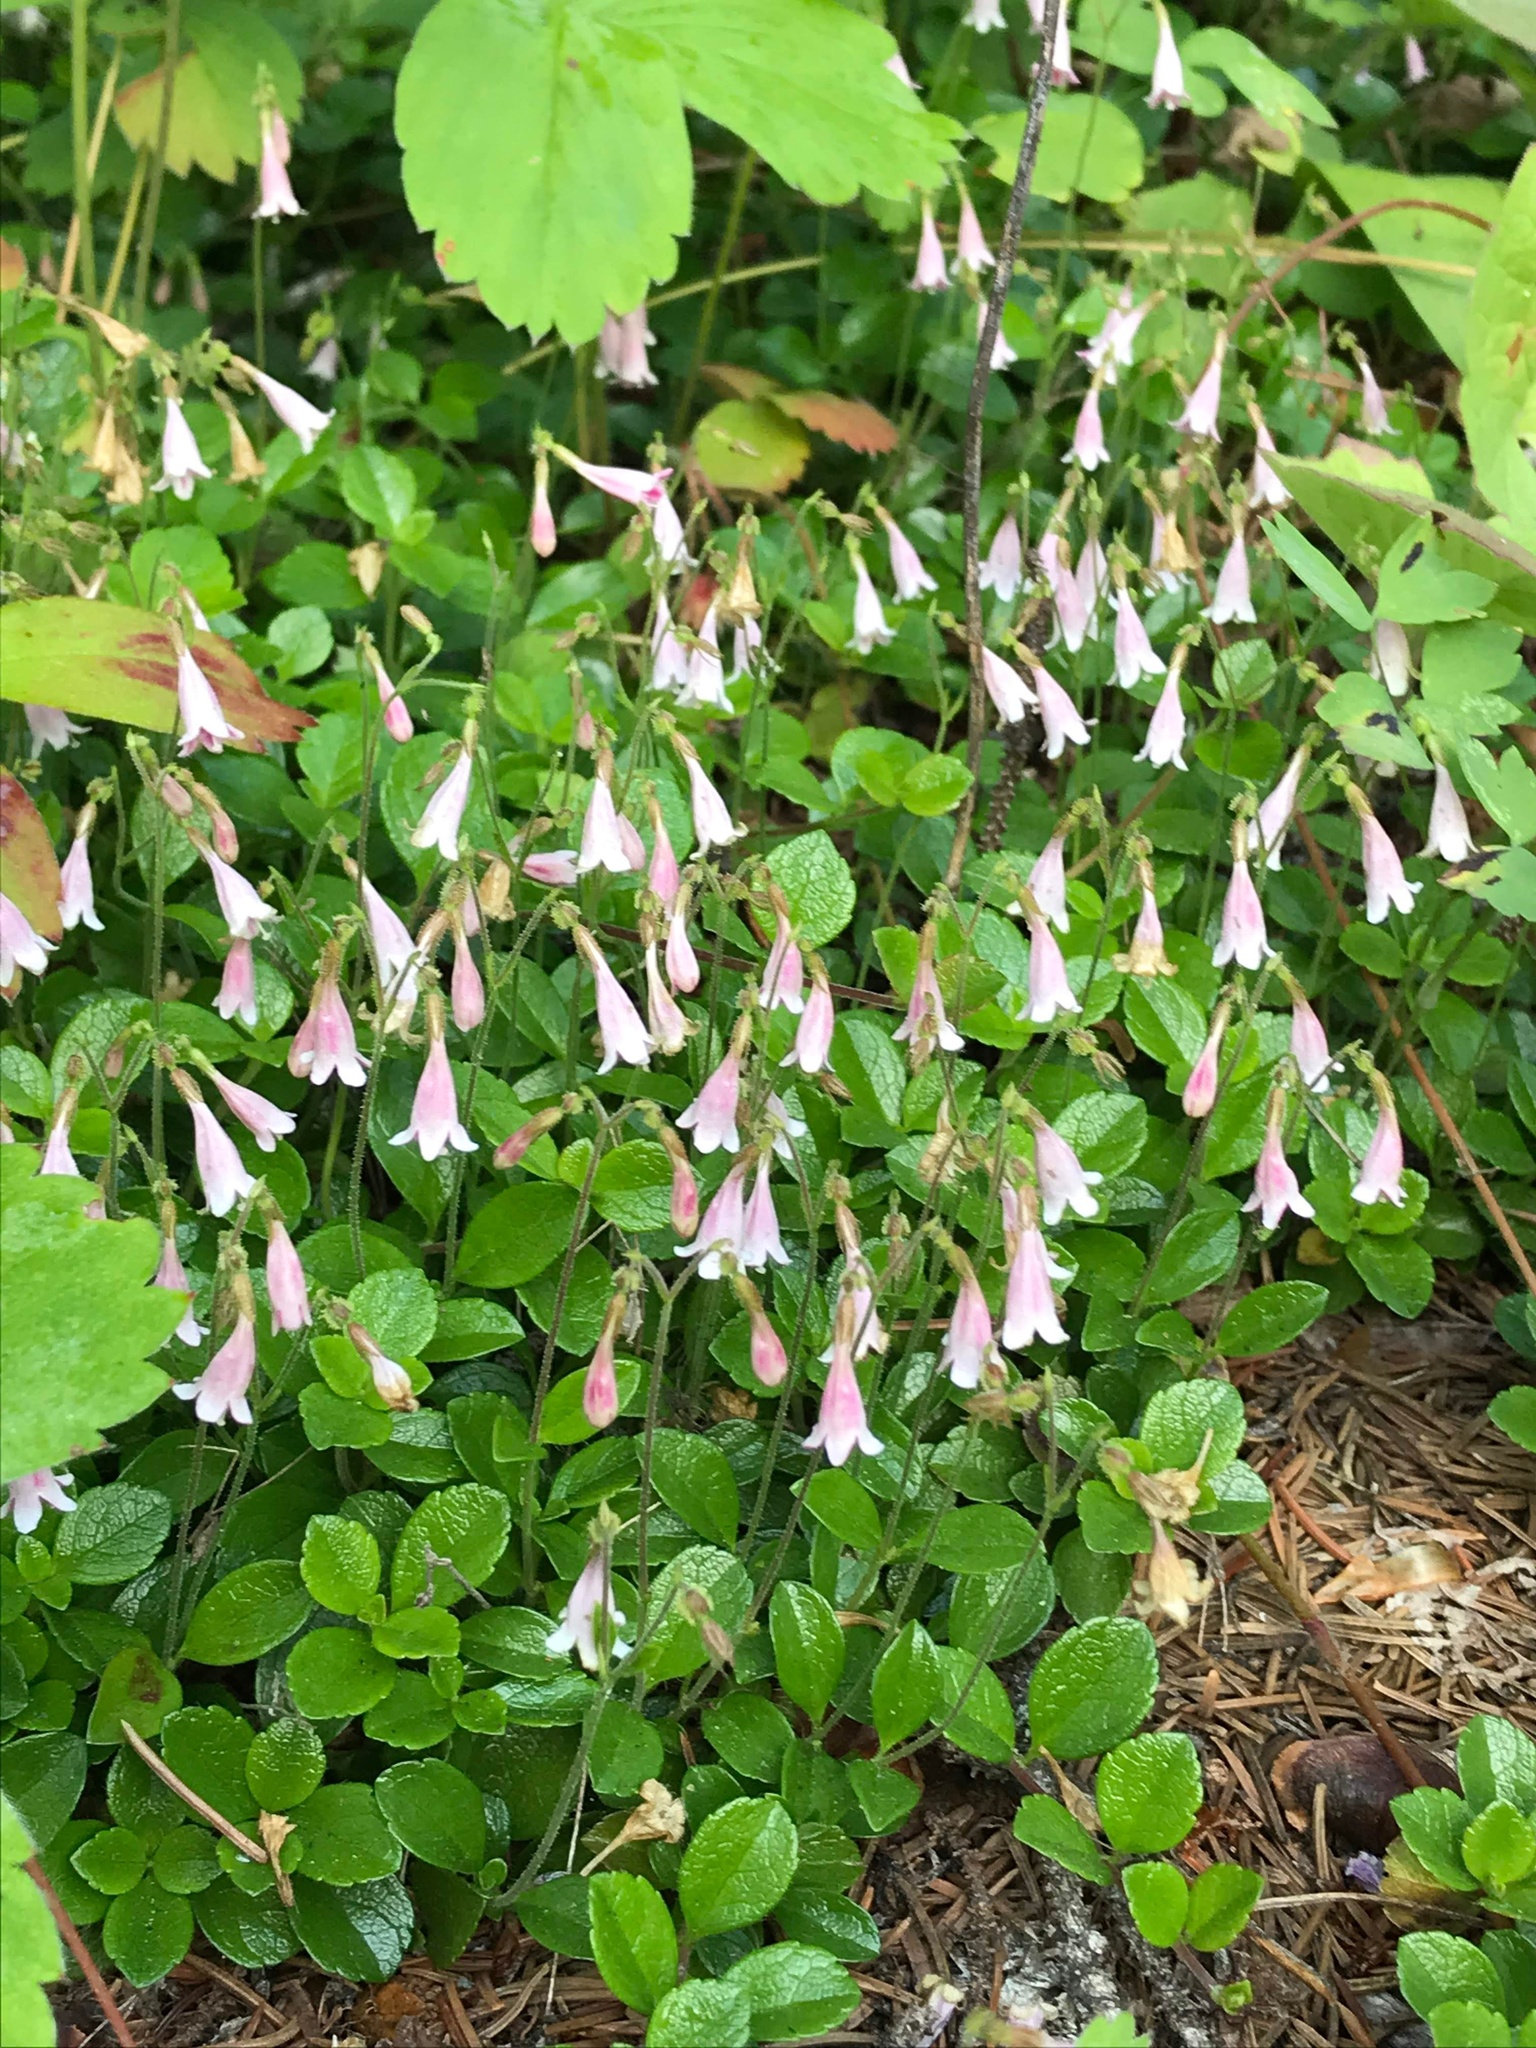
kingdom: Plantae
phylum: Tracheophyta
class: Magnoliopsida
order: Dipsacales
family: Caprifoliaceae
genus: Linnaea
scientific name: Linnaea borealis
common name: Twinflower
